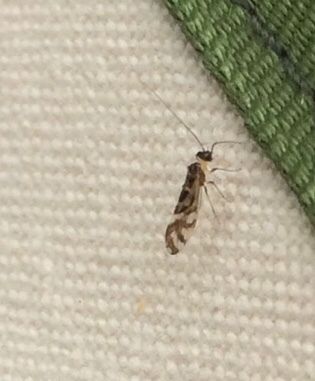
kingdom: Animalia
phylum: Arthropoda
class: Insecta
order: Psocodea
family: Stenopsocidae
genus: Graphopsocus
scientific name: Graphopsocus cruciatus
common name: Lizard bark louse
